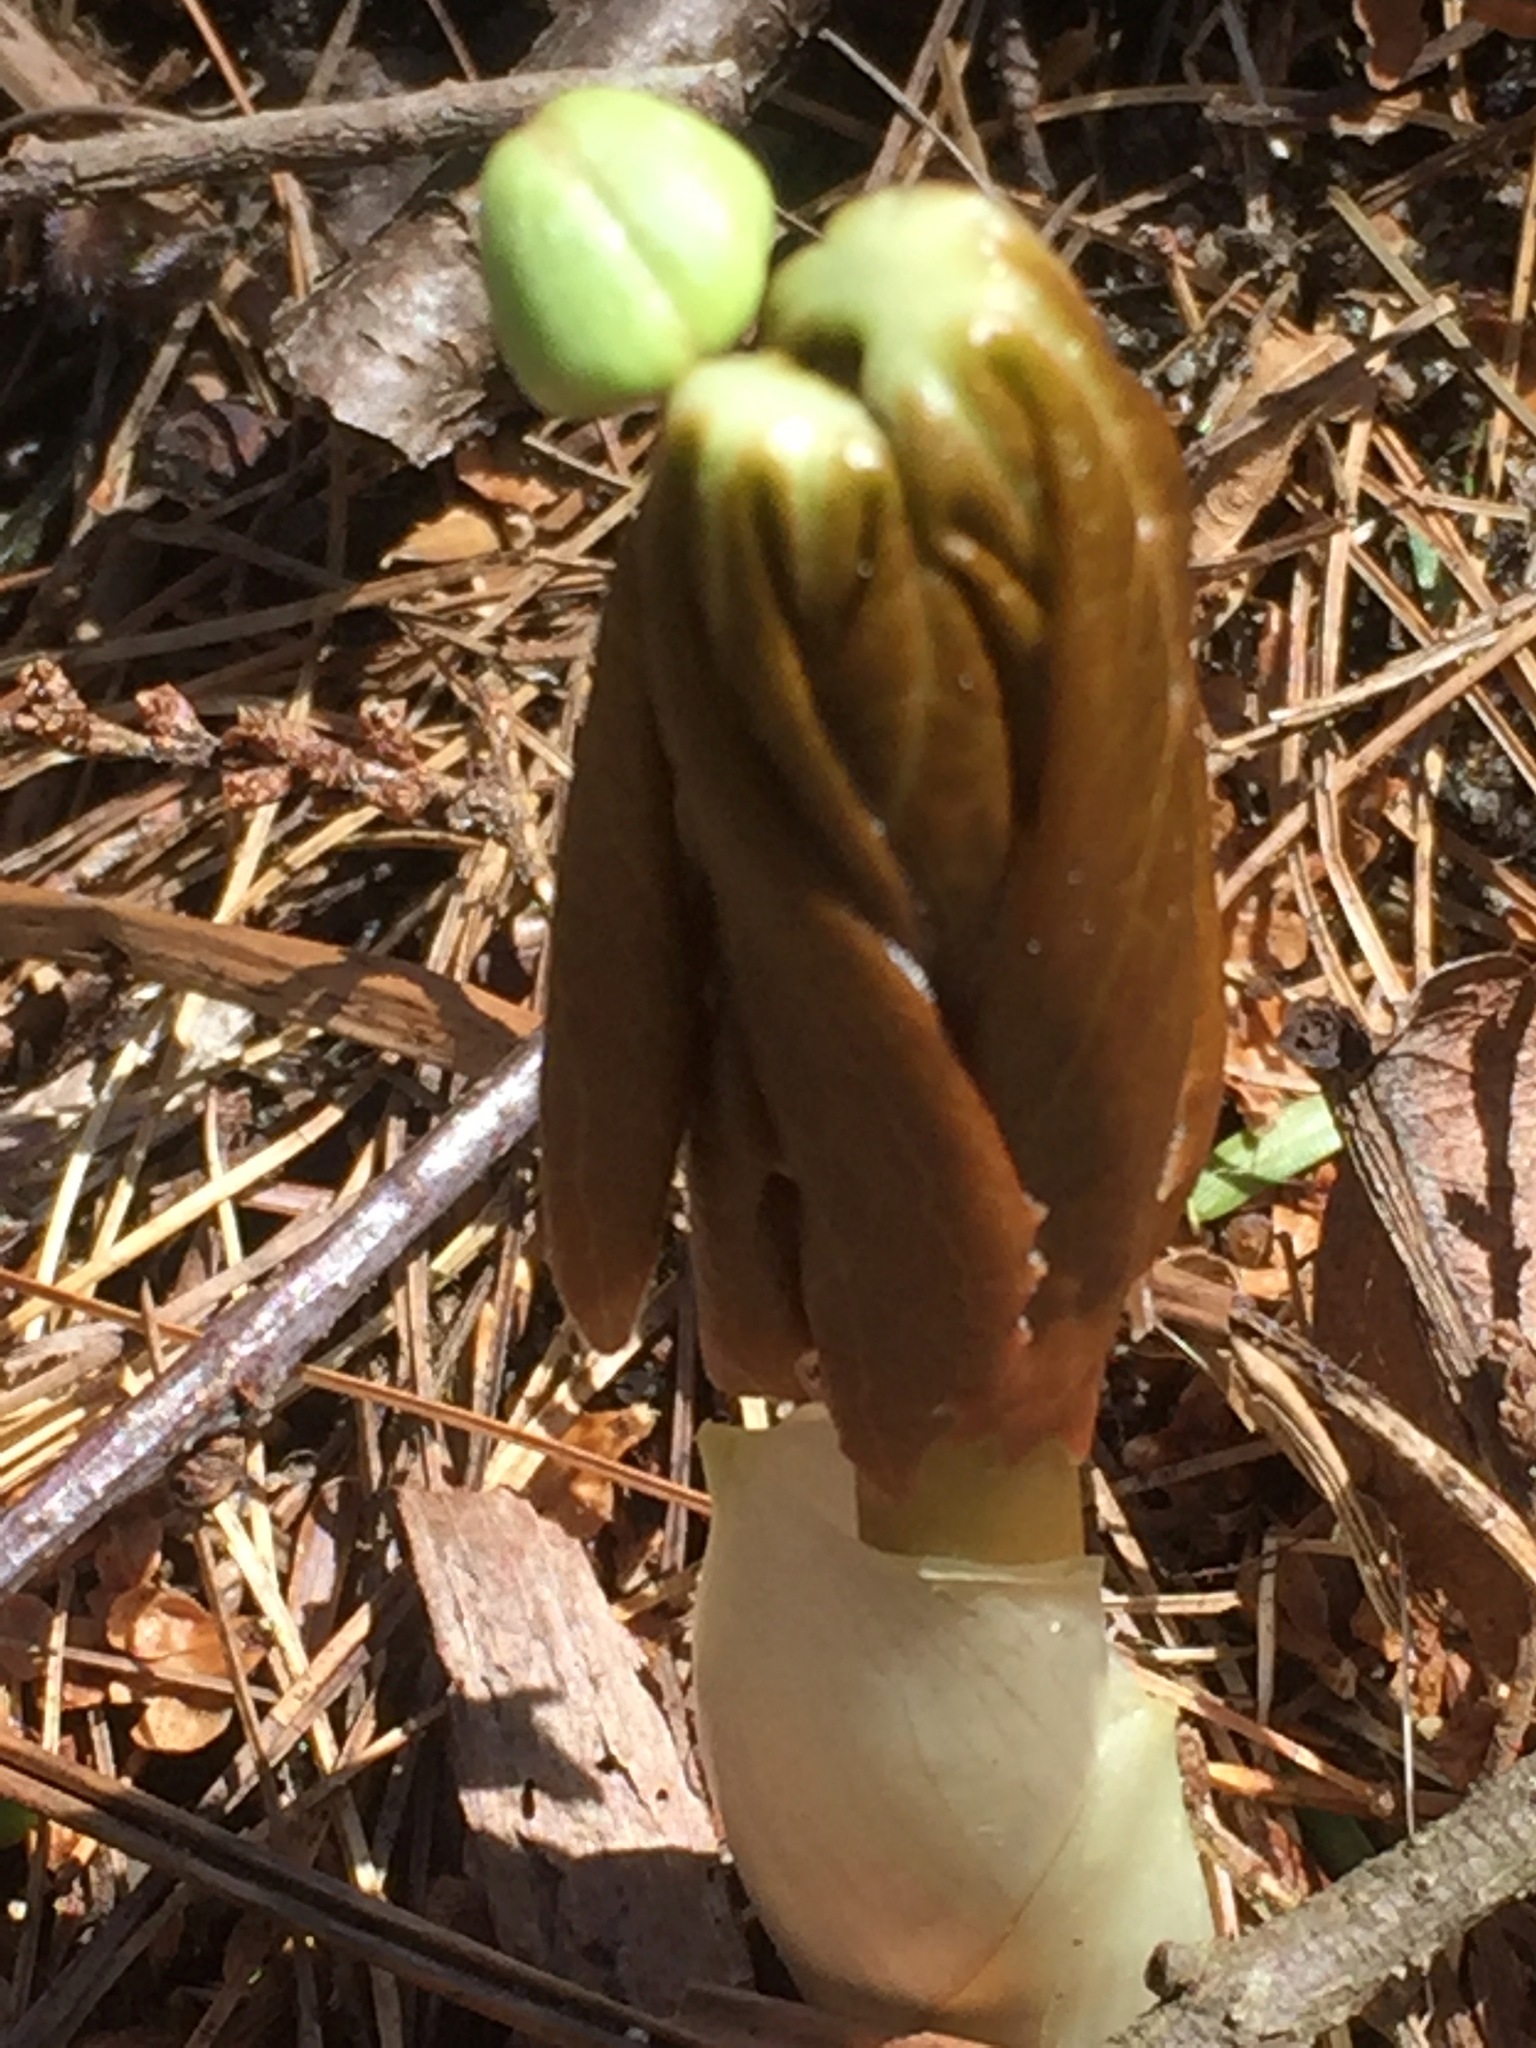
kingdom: Plantae
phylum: Tracheophyta
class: Magnoliopsida
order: Ranunculales
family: Berberidaceae
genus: Podophyllum
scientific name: Podophyllum peltatum
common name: Wild mandrake
